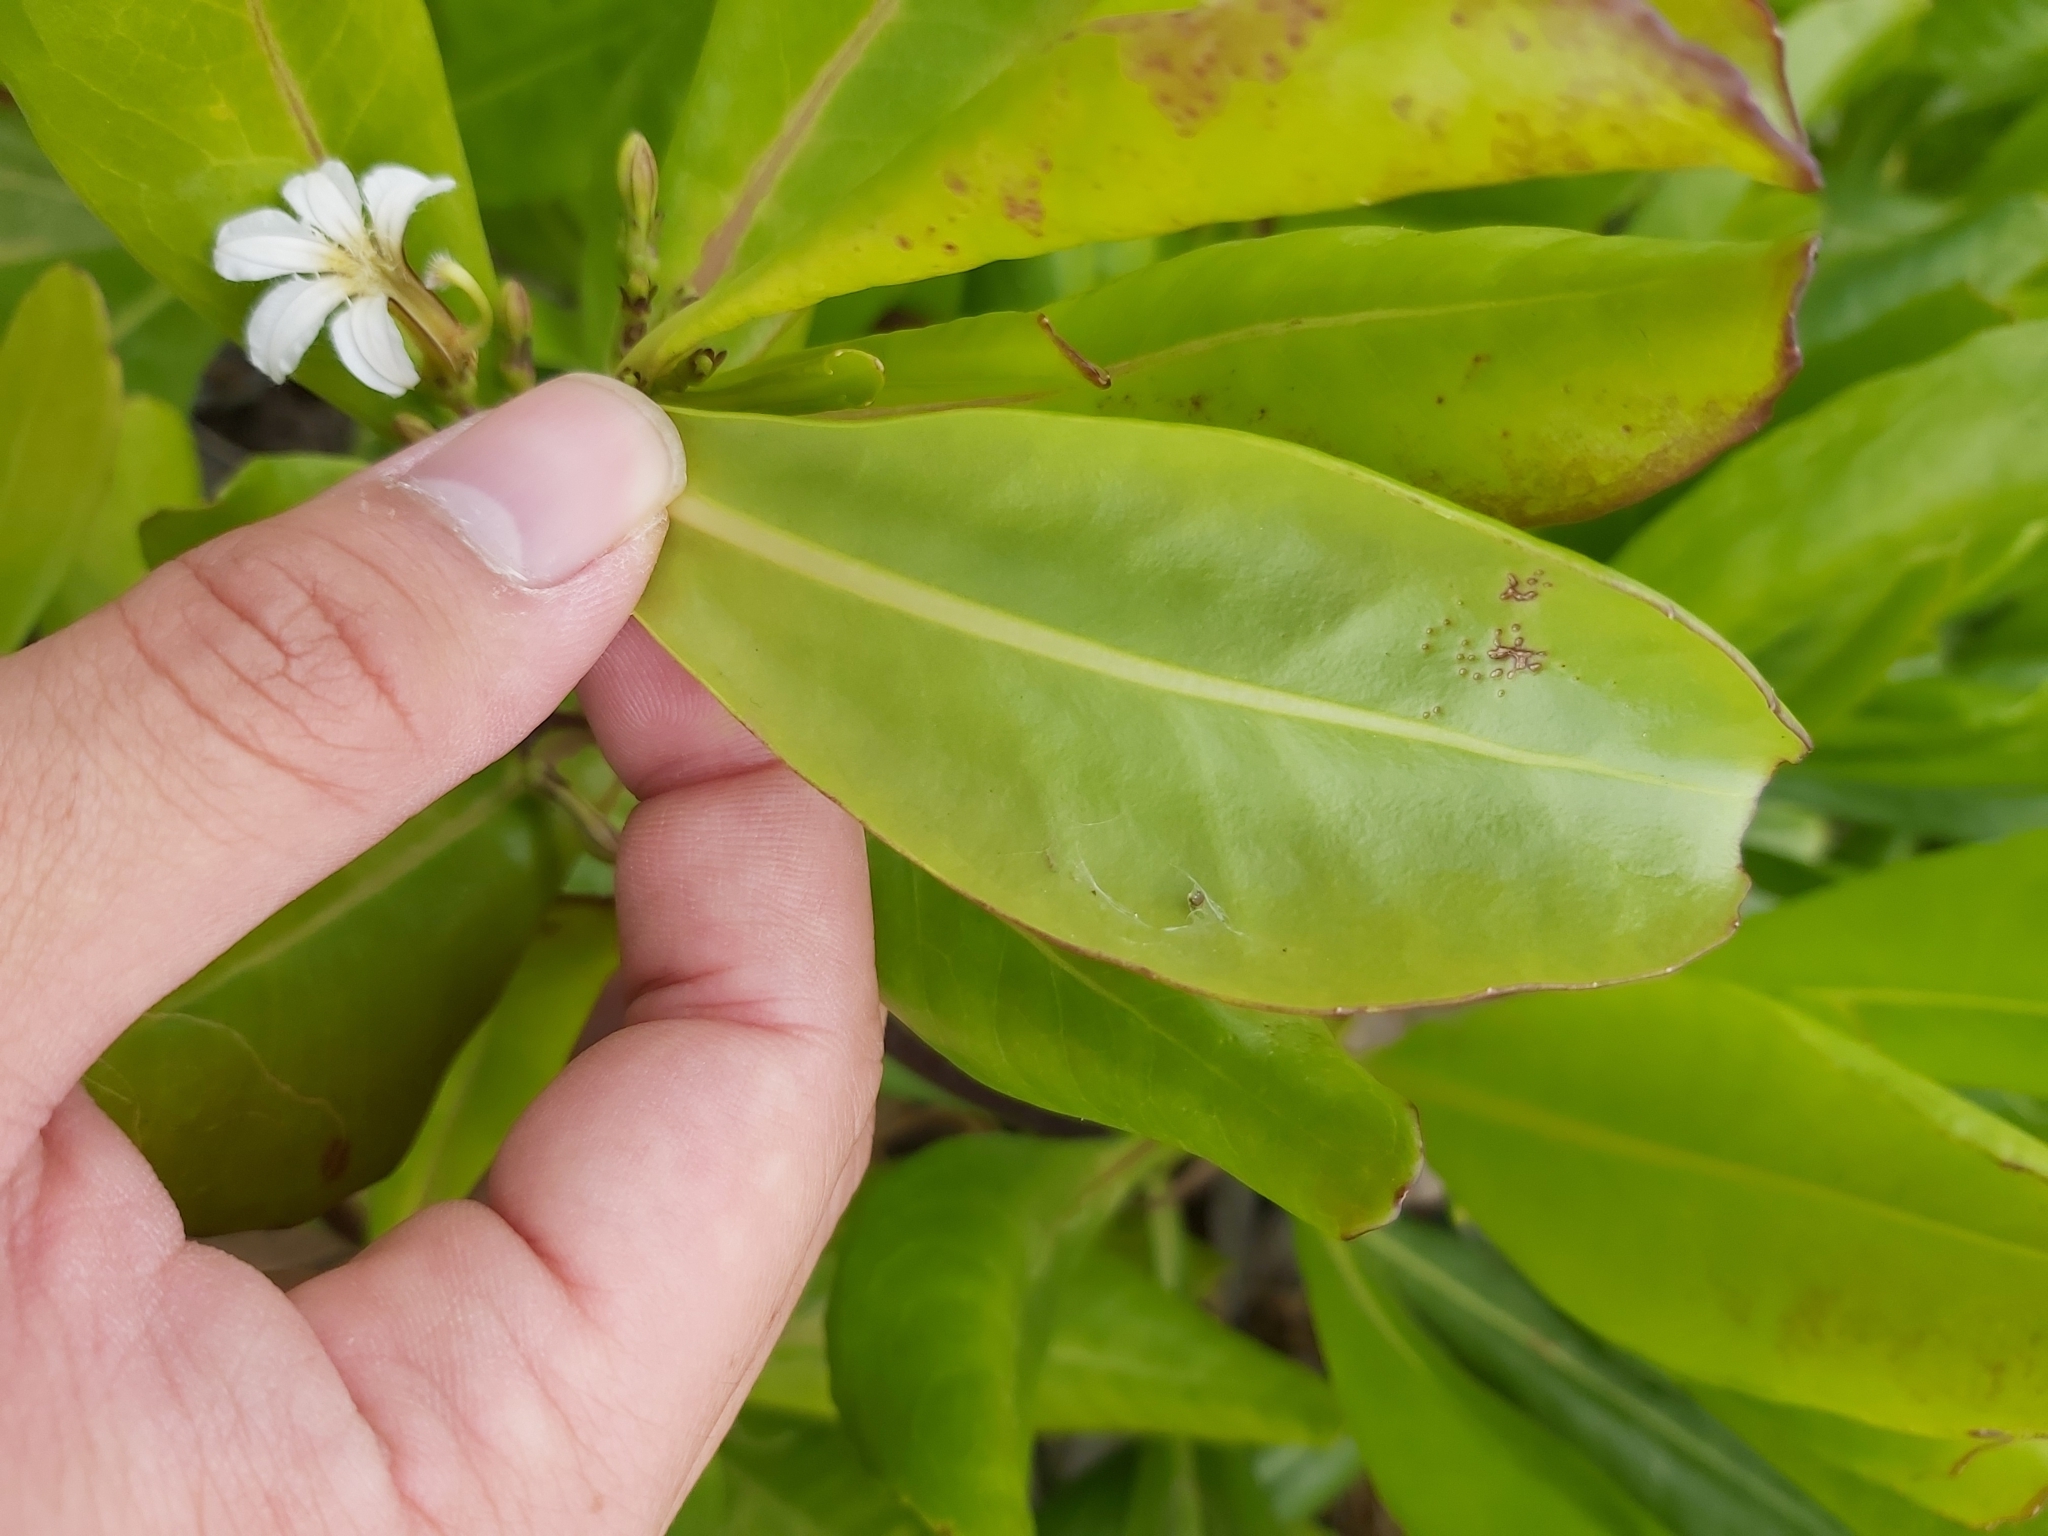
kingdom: Plantae
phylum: Tracheophyta
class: Magnoliopsida
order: Asterales
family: Goodeniaceae
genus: Scaevola
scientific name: Scaevola taccada
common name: Sea lettucetree
